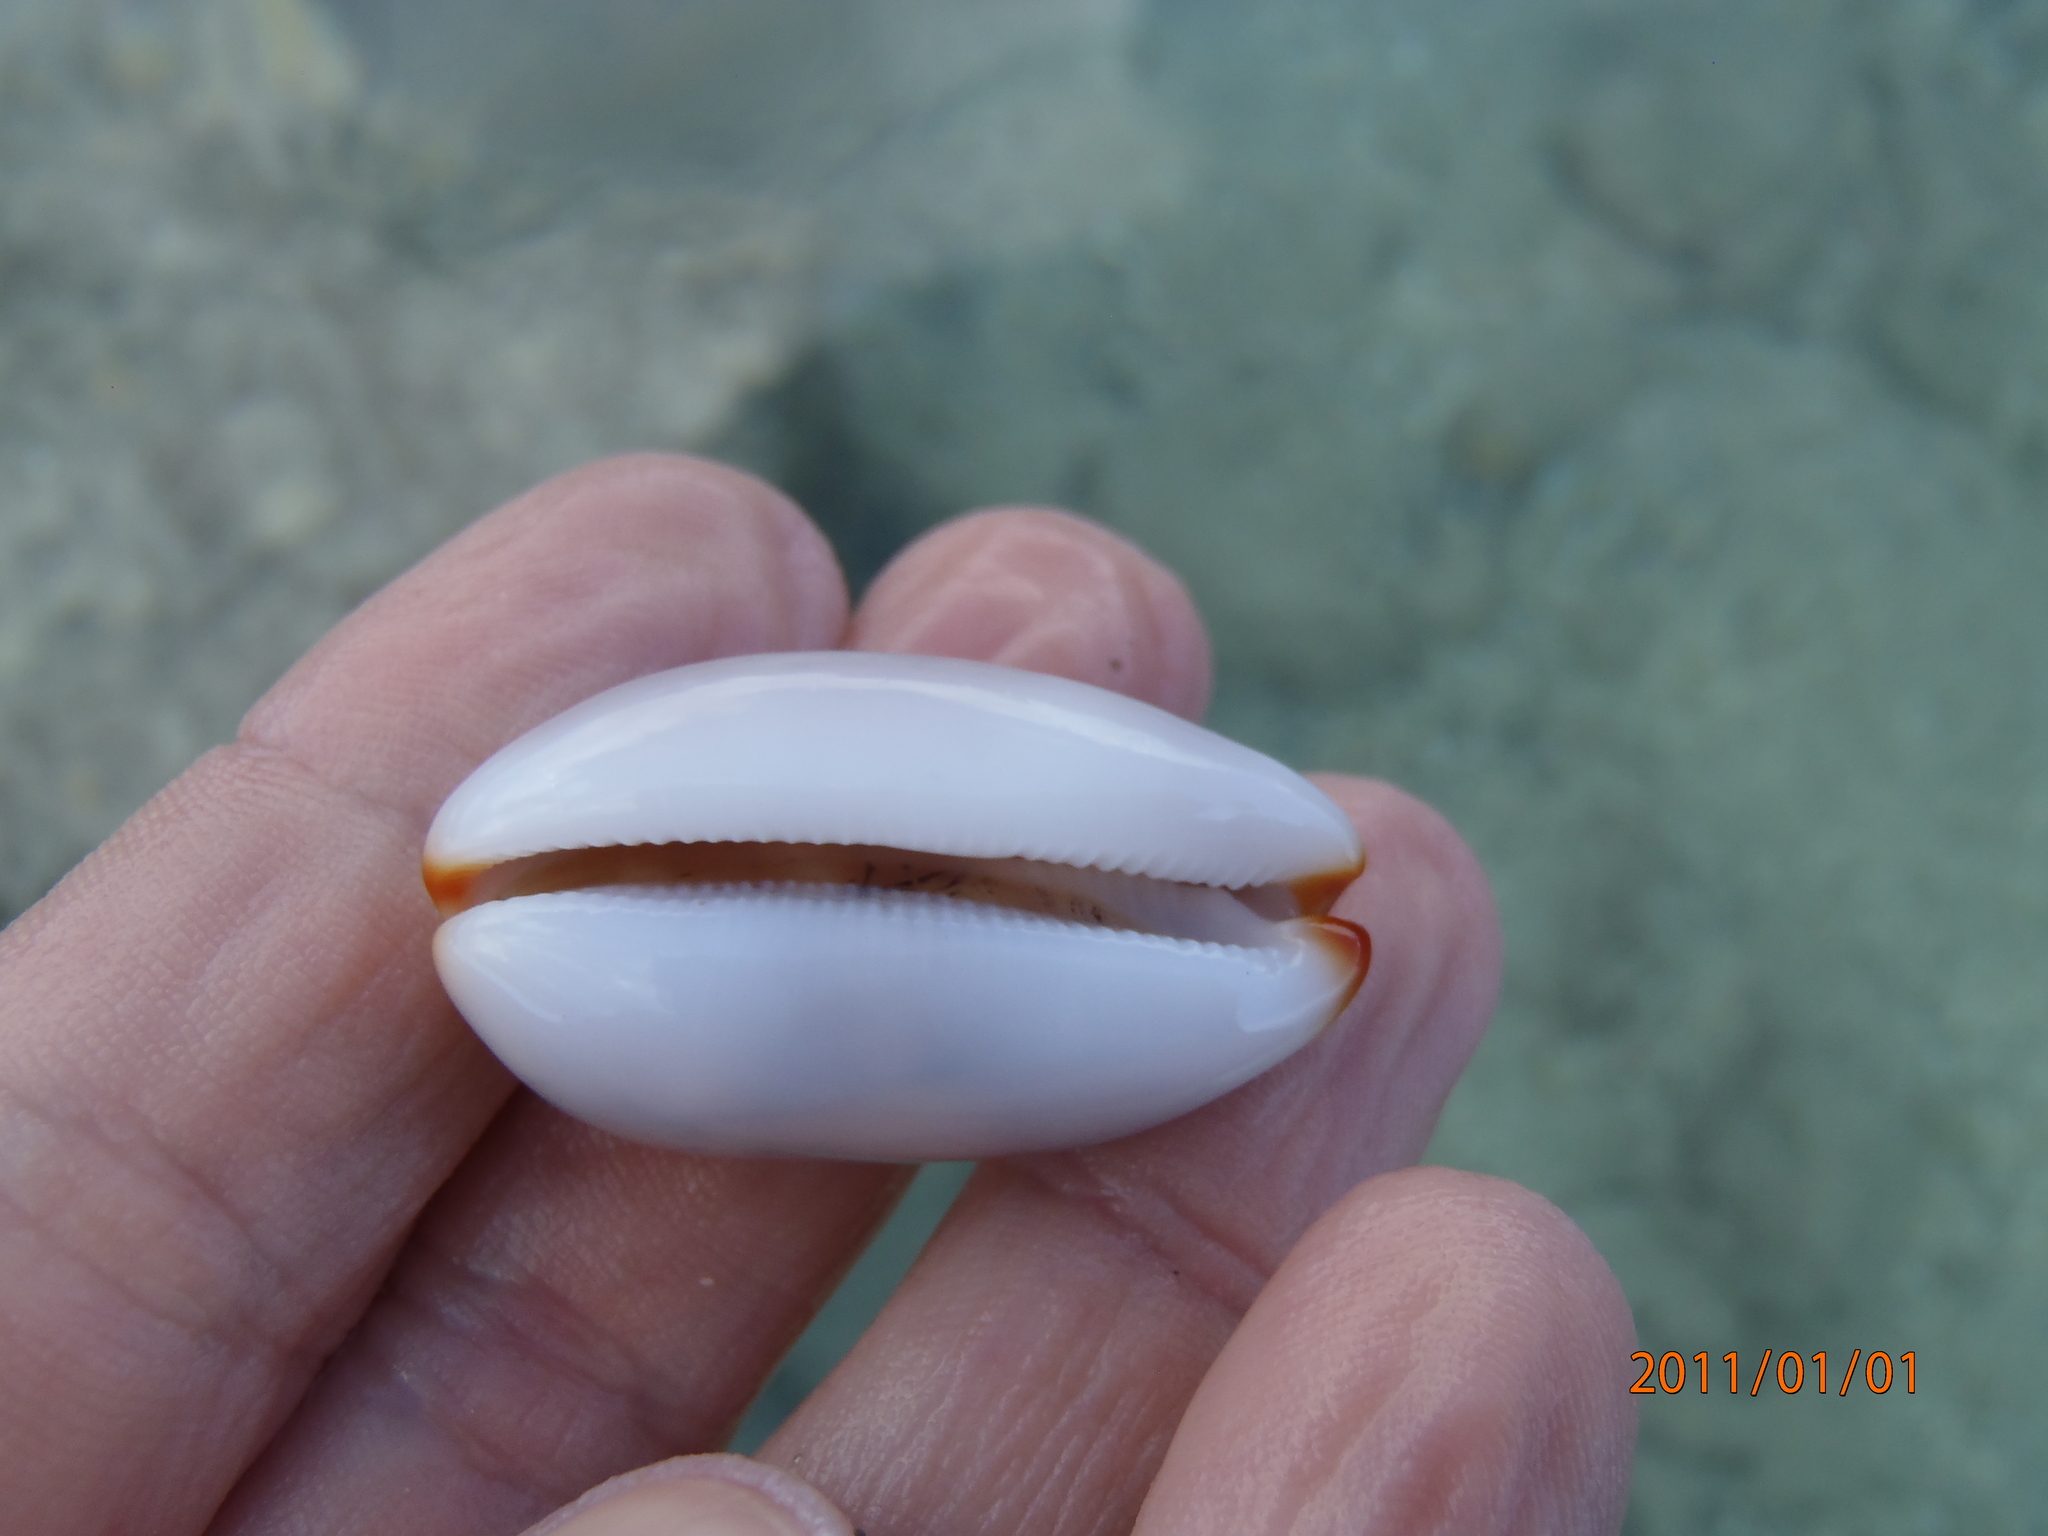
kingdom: Animalia
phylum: Mollusca
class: Gastropoda
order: Littorinimorpha
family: Cypraeidae
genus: Luria
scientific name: Luria isabella
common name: Isabell cowry
